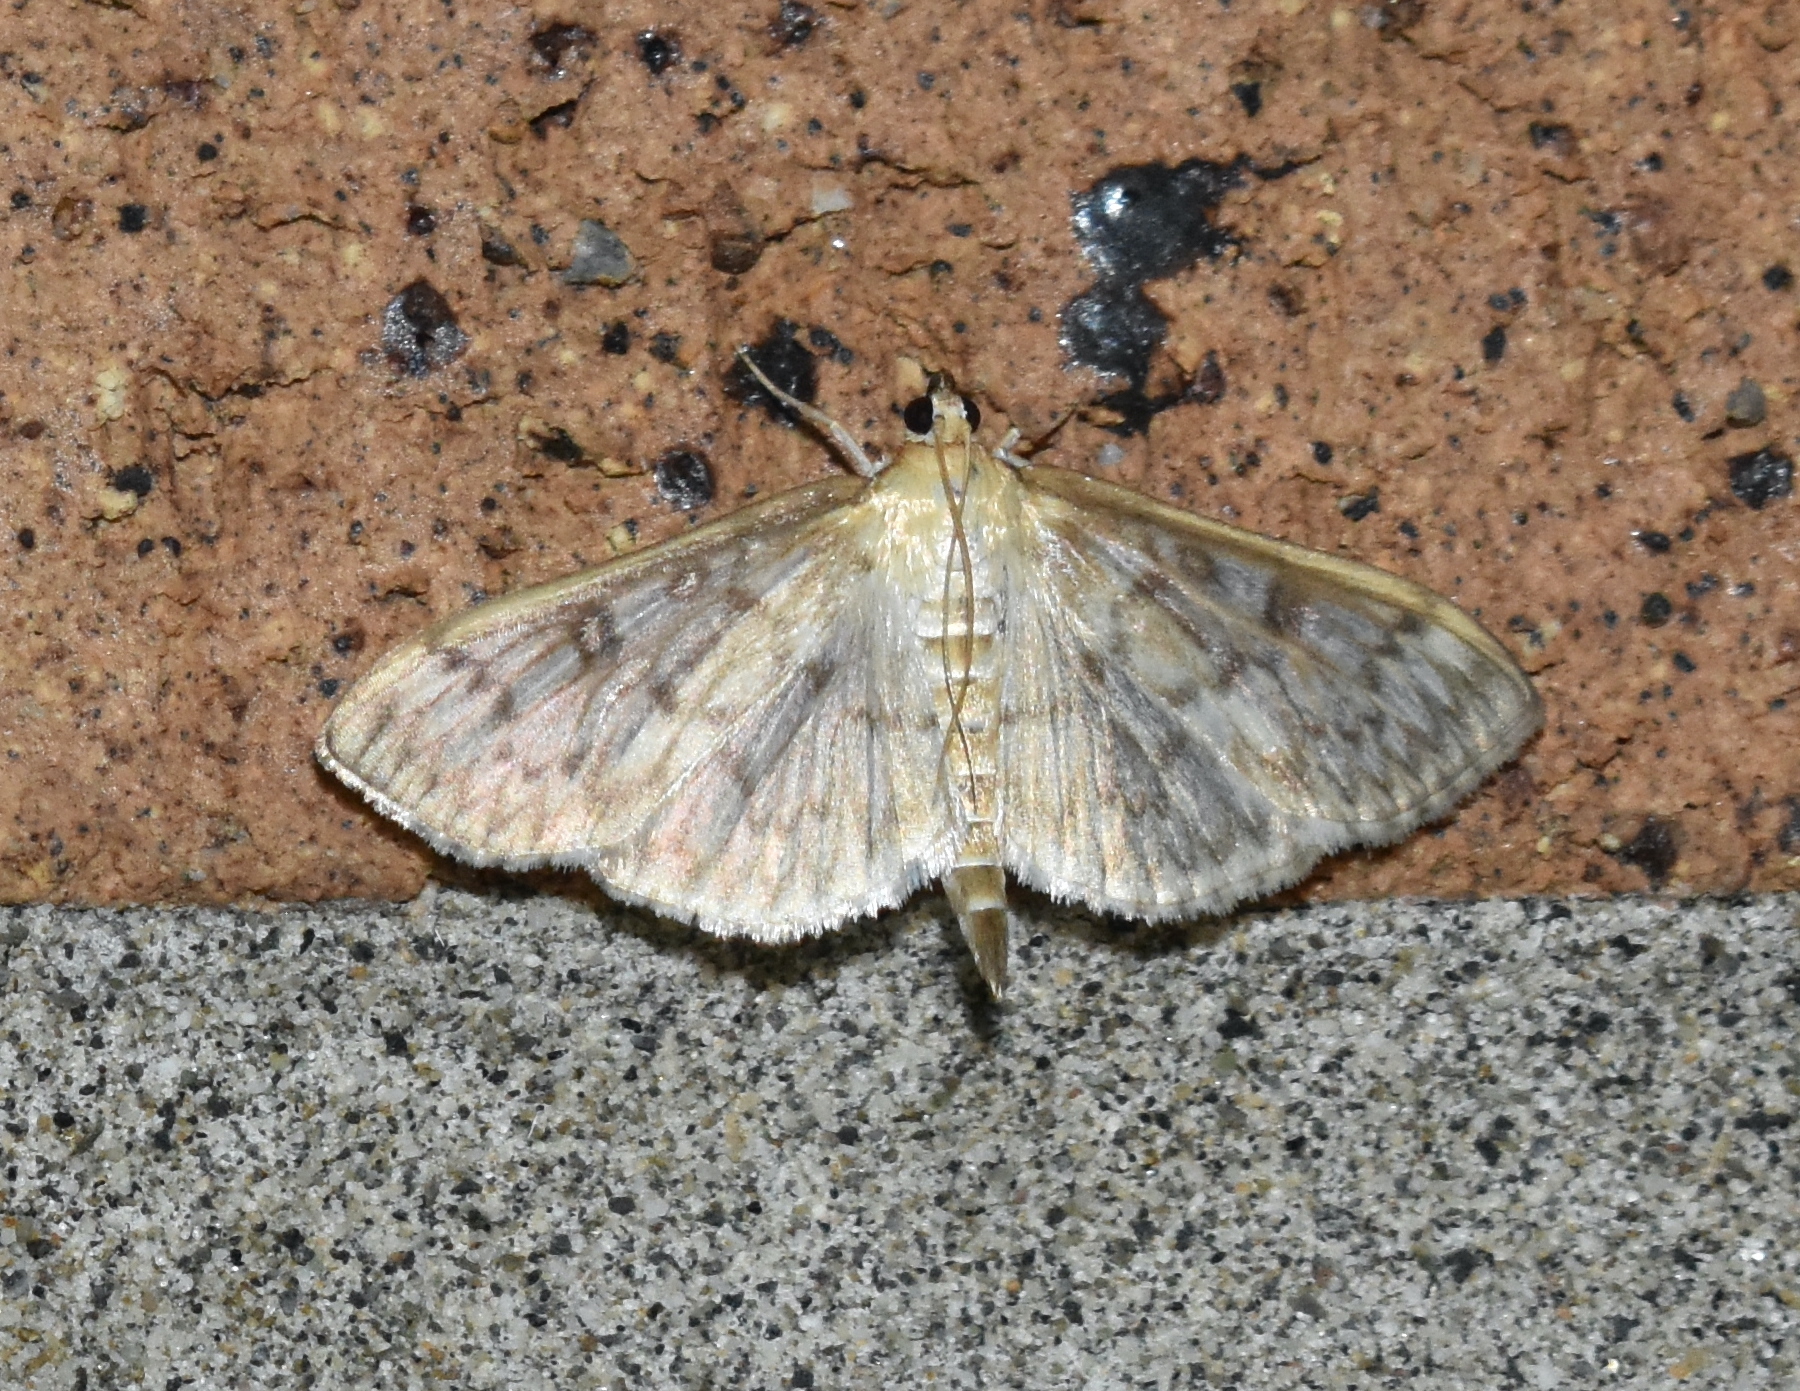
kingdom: Animalia
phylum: Arthropoda
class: Insecta
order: Lepidoptera
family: Crambidae
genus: Herpetogramma
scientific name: Herpetogramma aquilonalis
